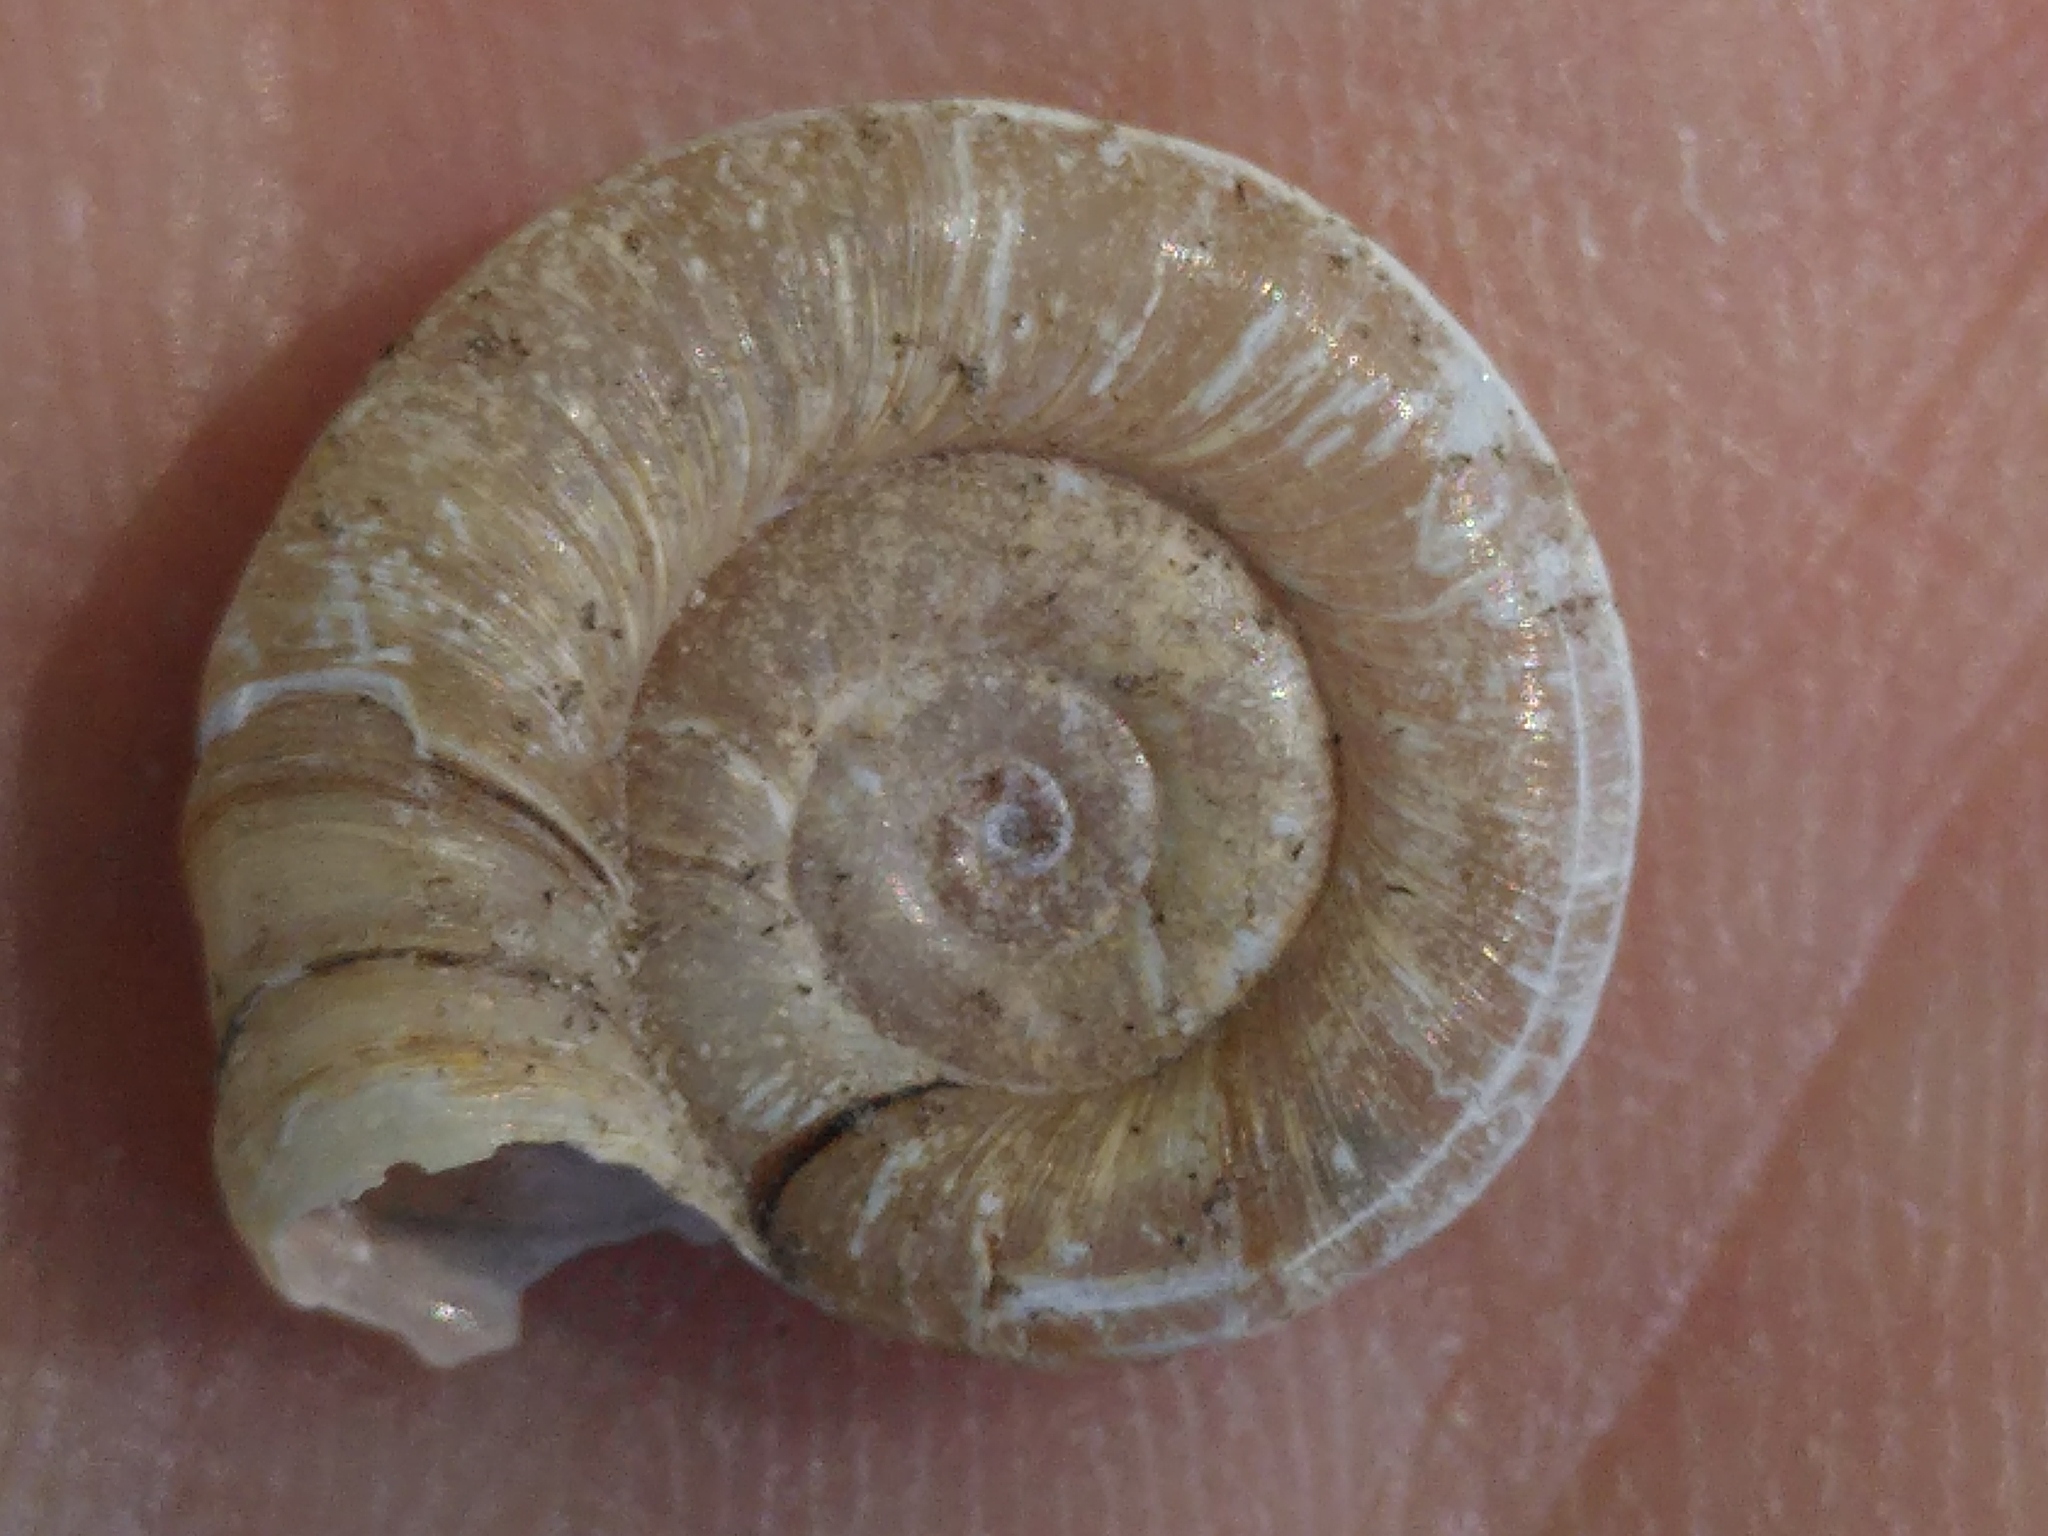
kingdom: Animalia
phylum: Mollusca
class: Gastropoda
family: Planorbidae
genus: Planorbis
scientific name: Planorbis planorbis
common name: Margined ramshorn
